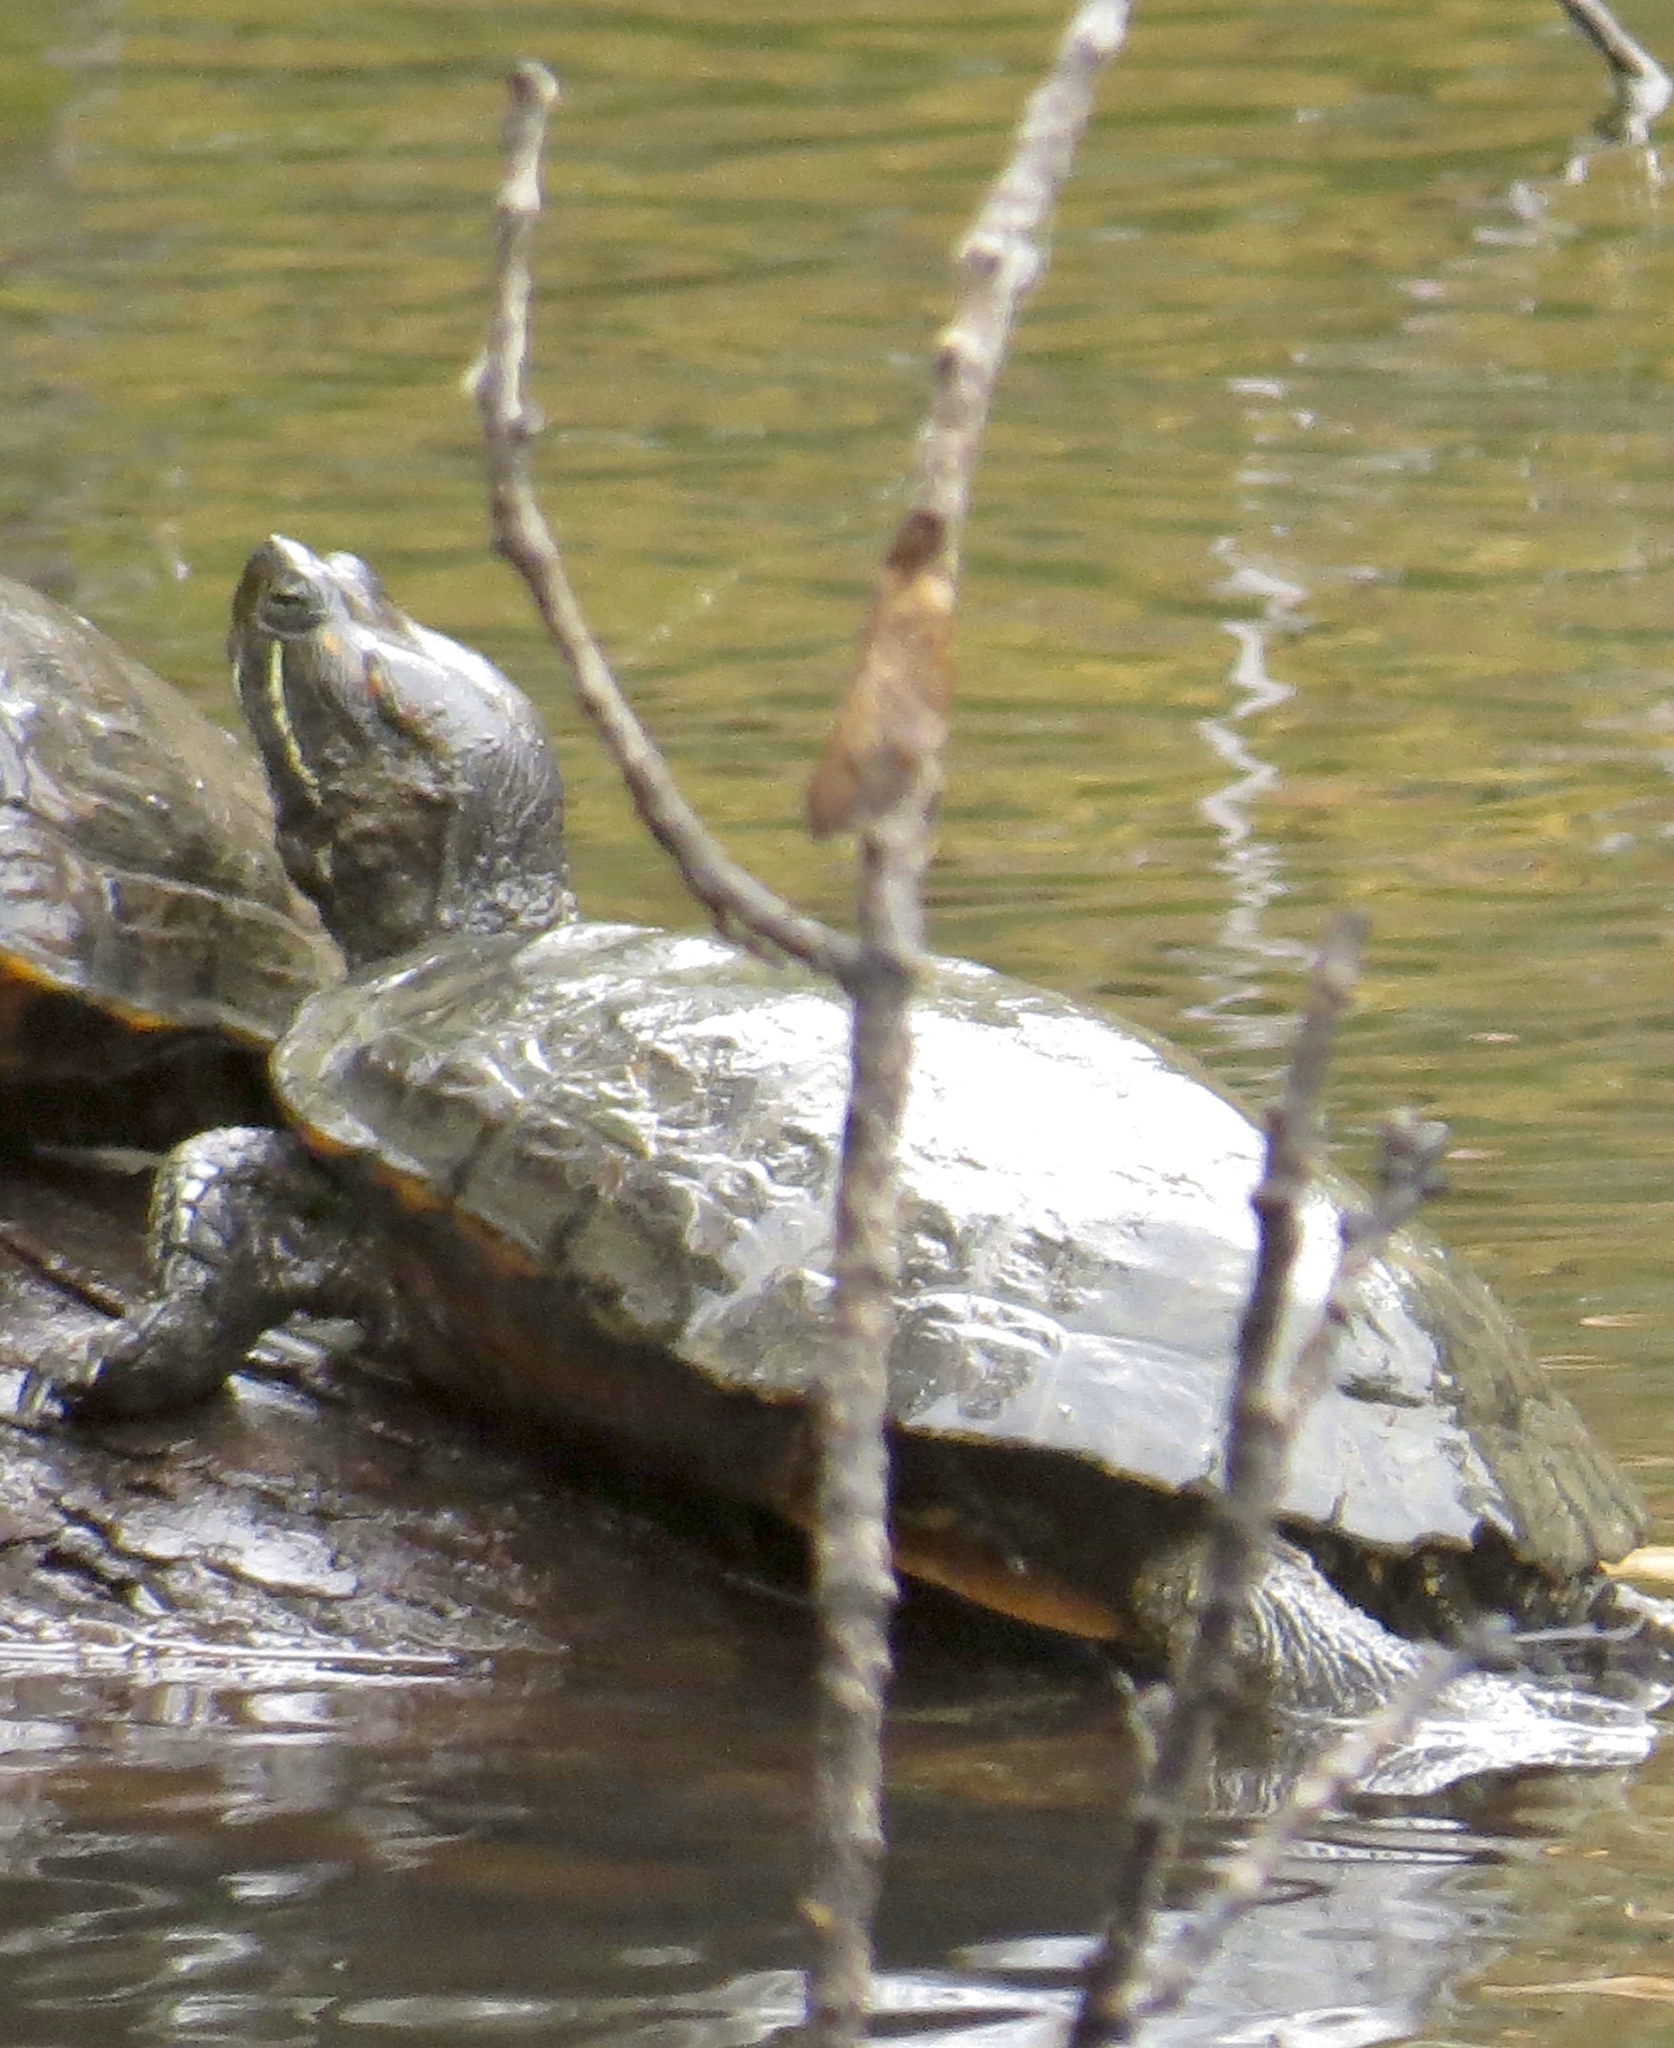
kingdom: Animalia
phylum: Chordata
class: Testudines
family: Emydidae
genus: Trachemys
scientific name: Trachemys scripta
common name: Slider
